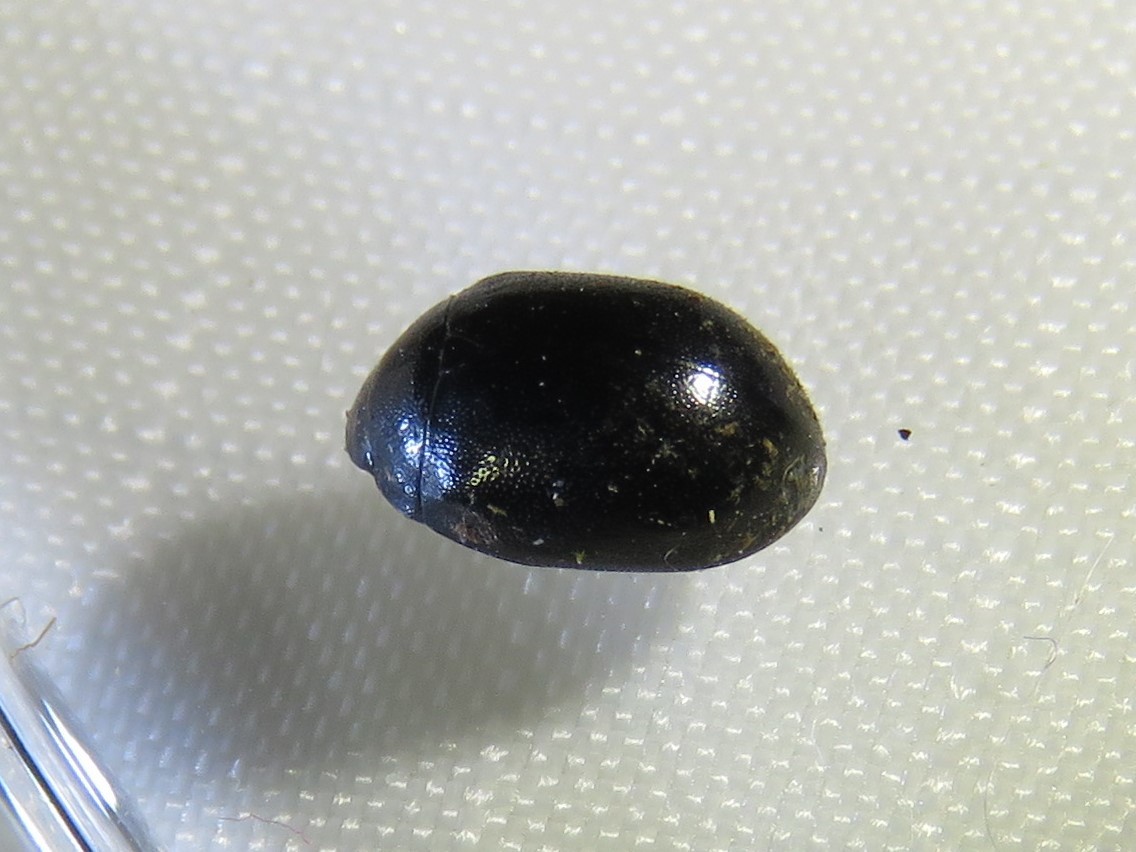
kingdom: Animalia
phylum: Arthropoda
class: Insecta
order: Coleoptera
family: Nosodendridae
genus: Nosodendron
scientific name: Nosodendron unicolor
